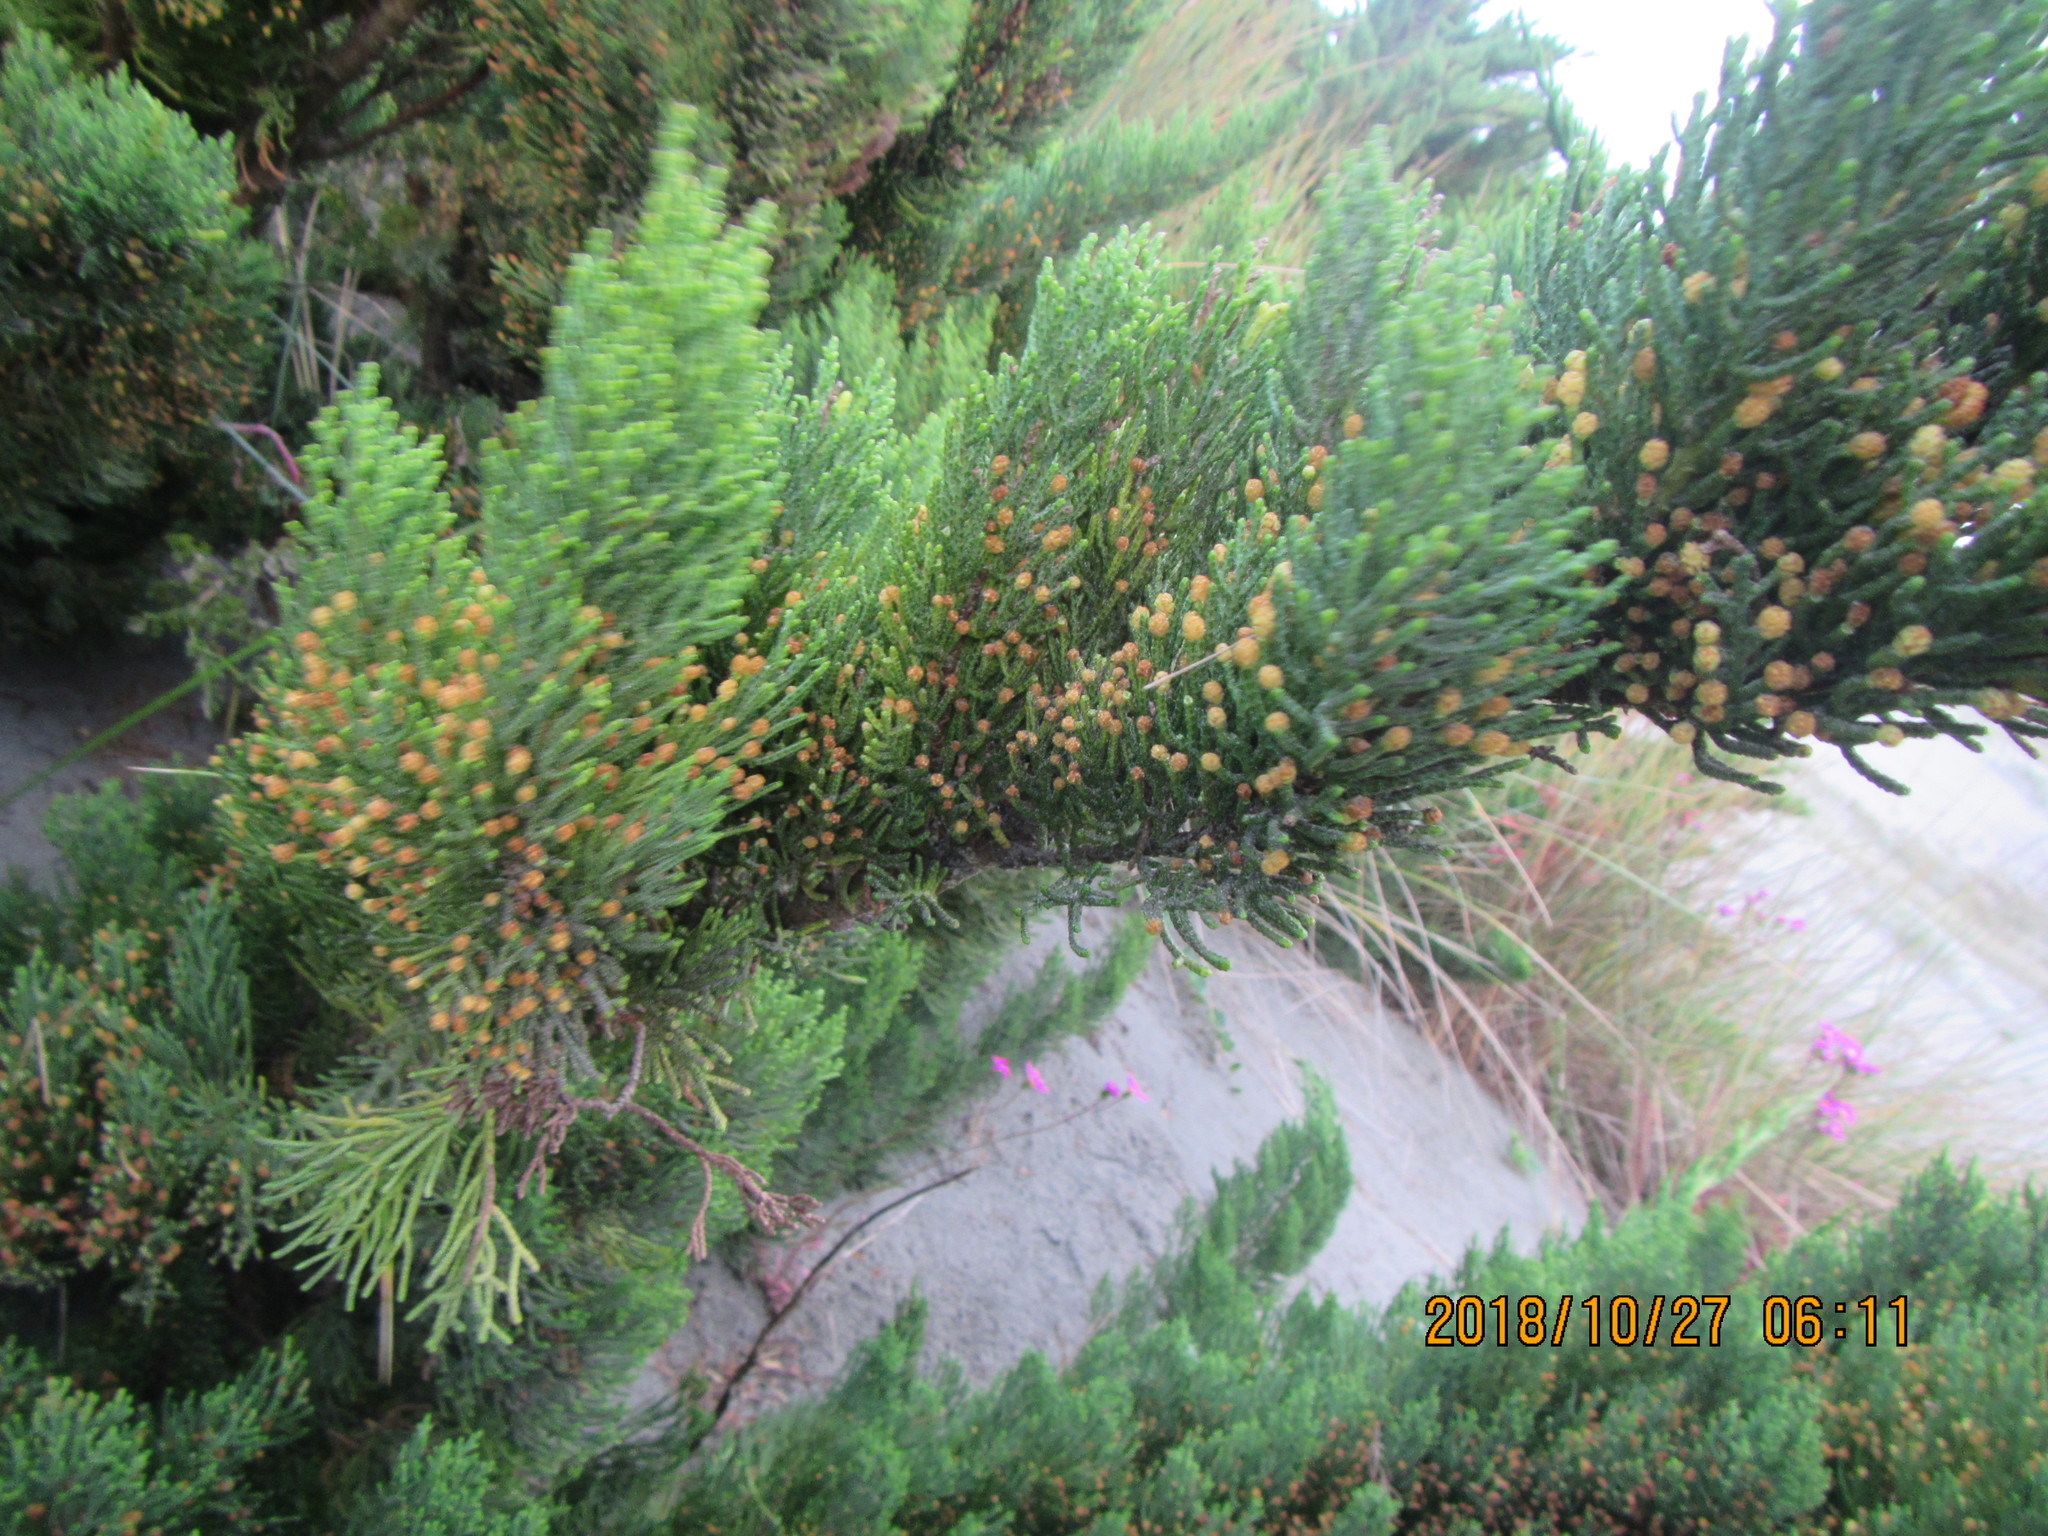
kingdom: Plantae
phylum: Tracheophyta
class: Pinopsida
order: Pinales
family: Cupressaceae
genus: Cupressus
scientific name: Cupressus macrocarpa
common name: Monterey cypress
